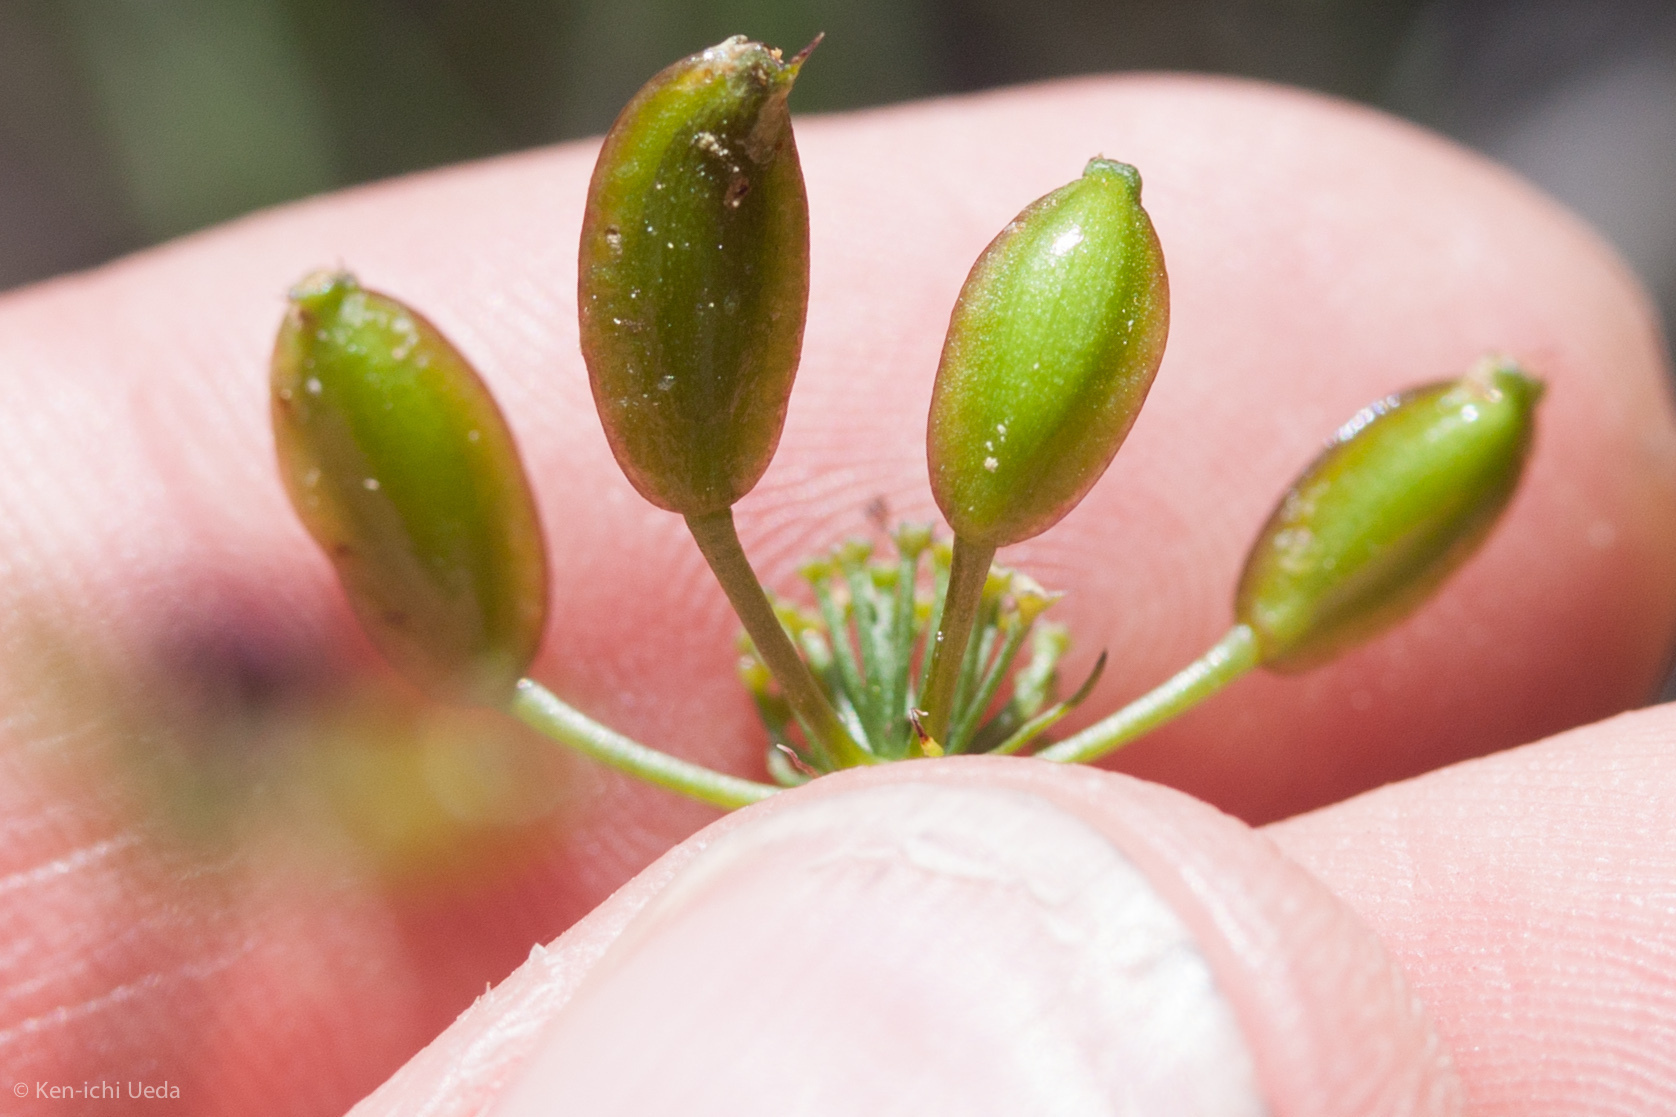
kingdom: Plantae
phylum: Tracheophyta
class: Magnoliopsida
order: Apiales
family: Apiaceae
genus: Lomatium
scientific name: Lomatium marginatum
